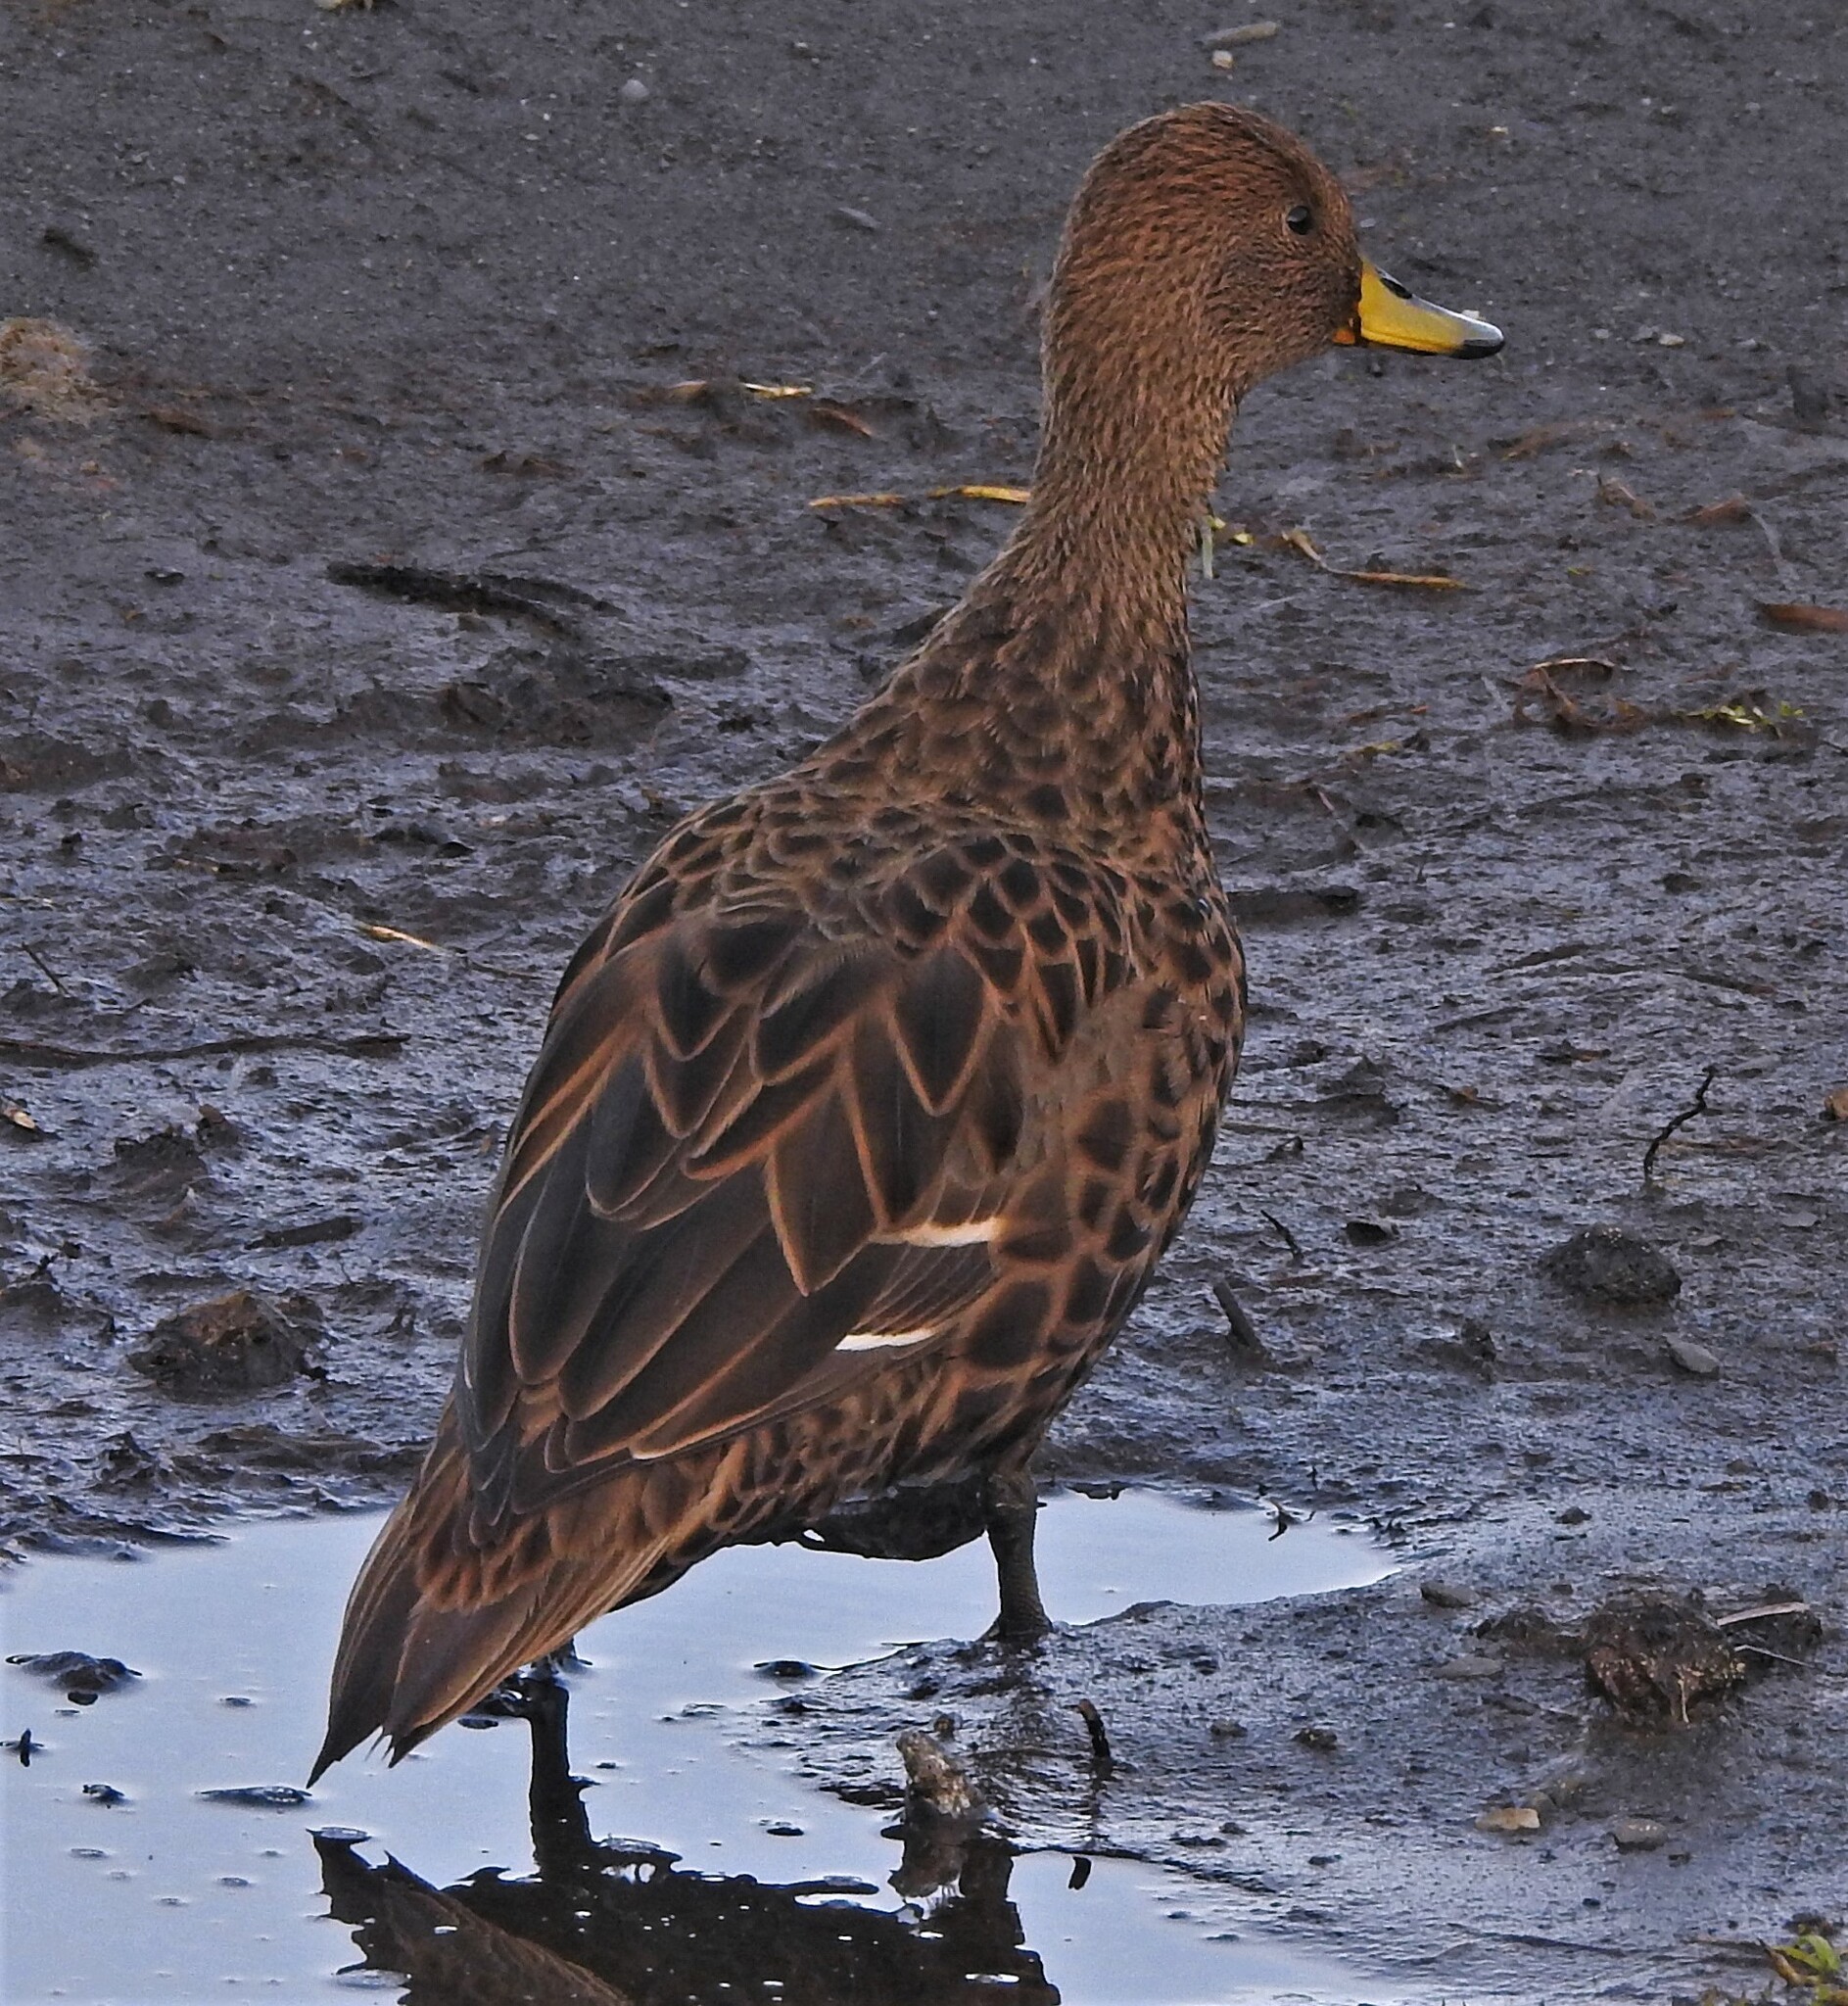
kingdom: Animalia
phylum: Chordata
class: Aves
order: Anseriformes
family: Anatidae
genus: Anas
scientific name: Anas georgica
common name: Yellow-billed pintail
